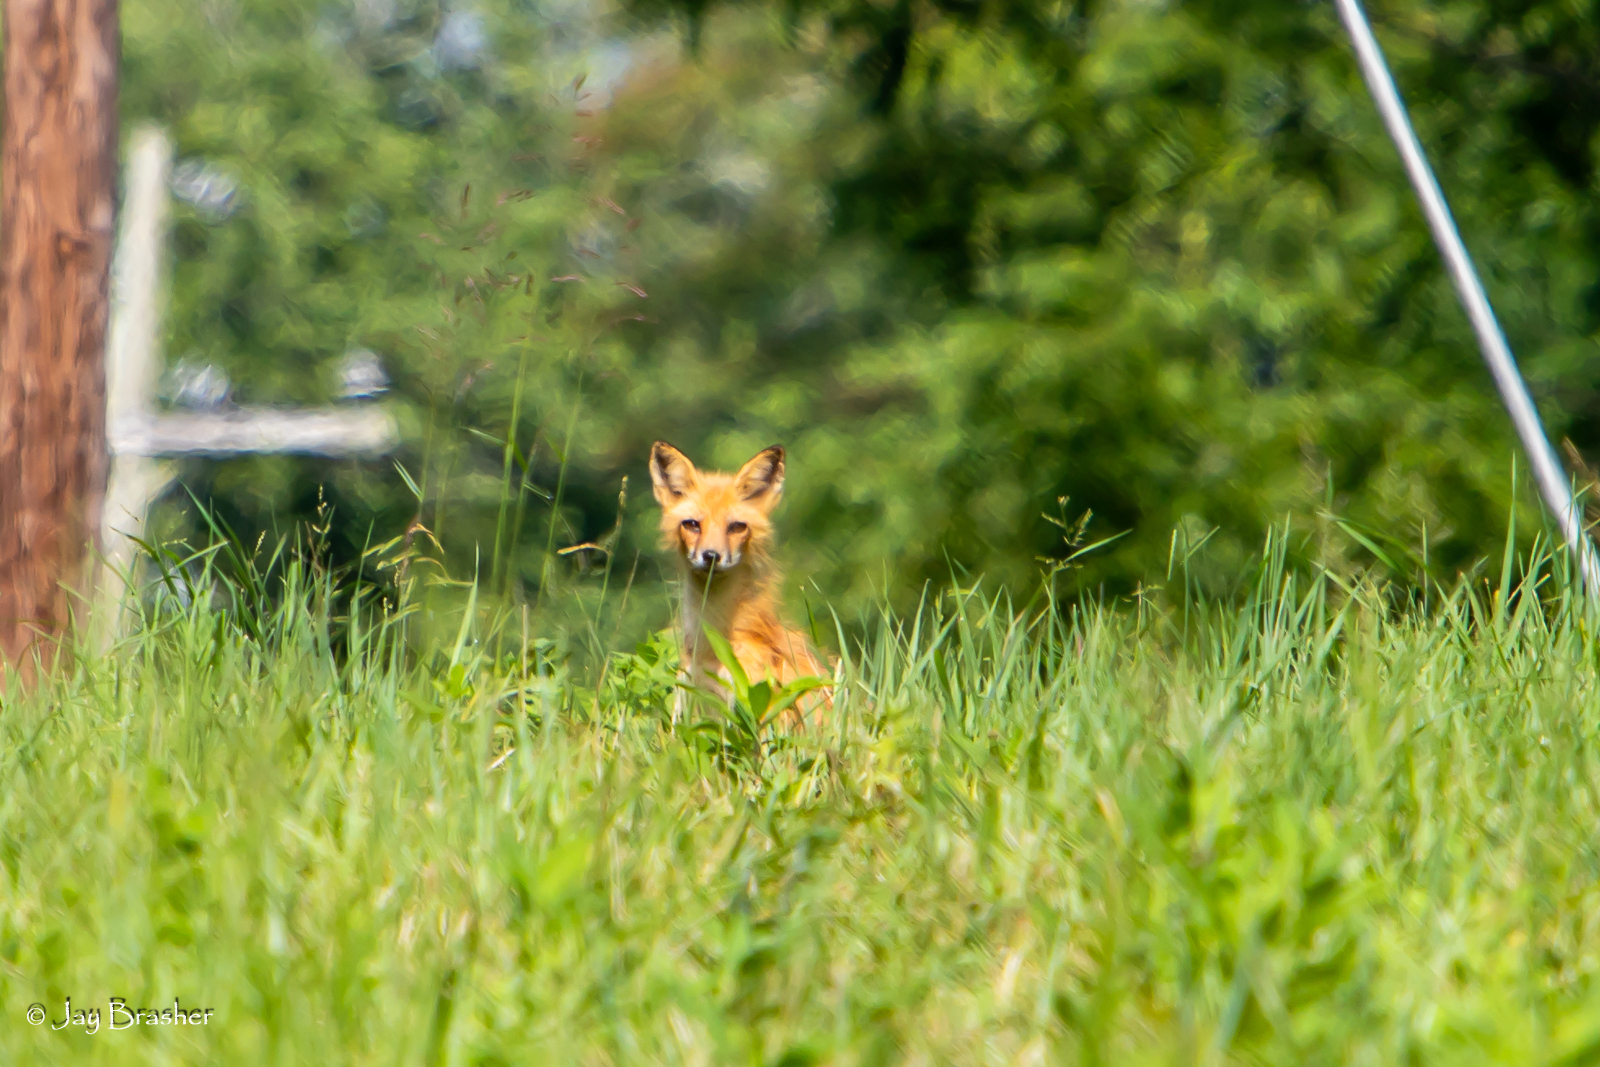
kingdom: Animalia
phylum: Chordata
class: Mammalia
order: Carnivora
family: Canidae
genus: Vulpes
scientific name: Vulpes vulpes
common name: Red fox
